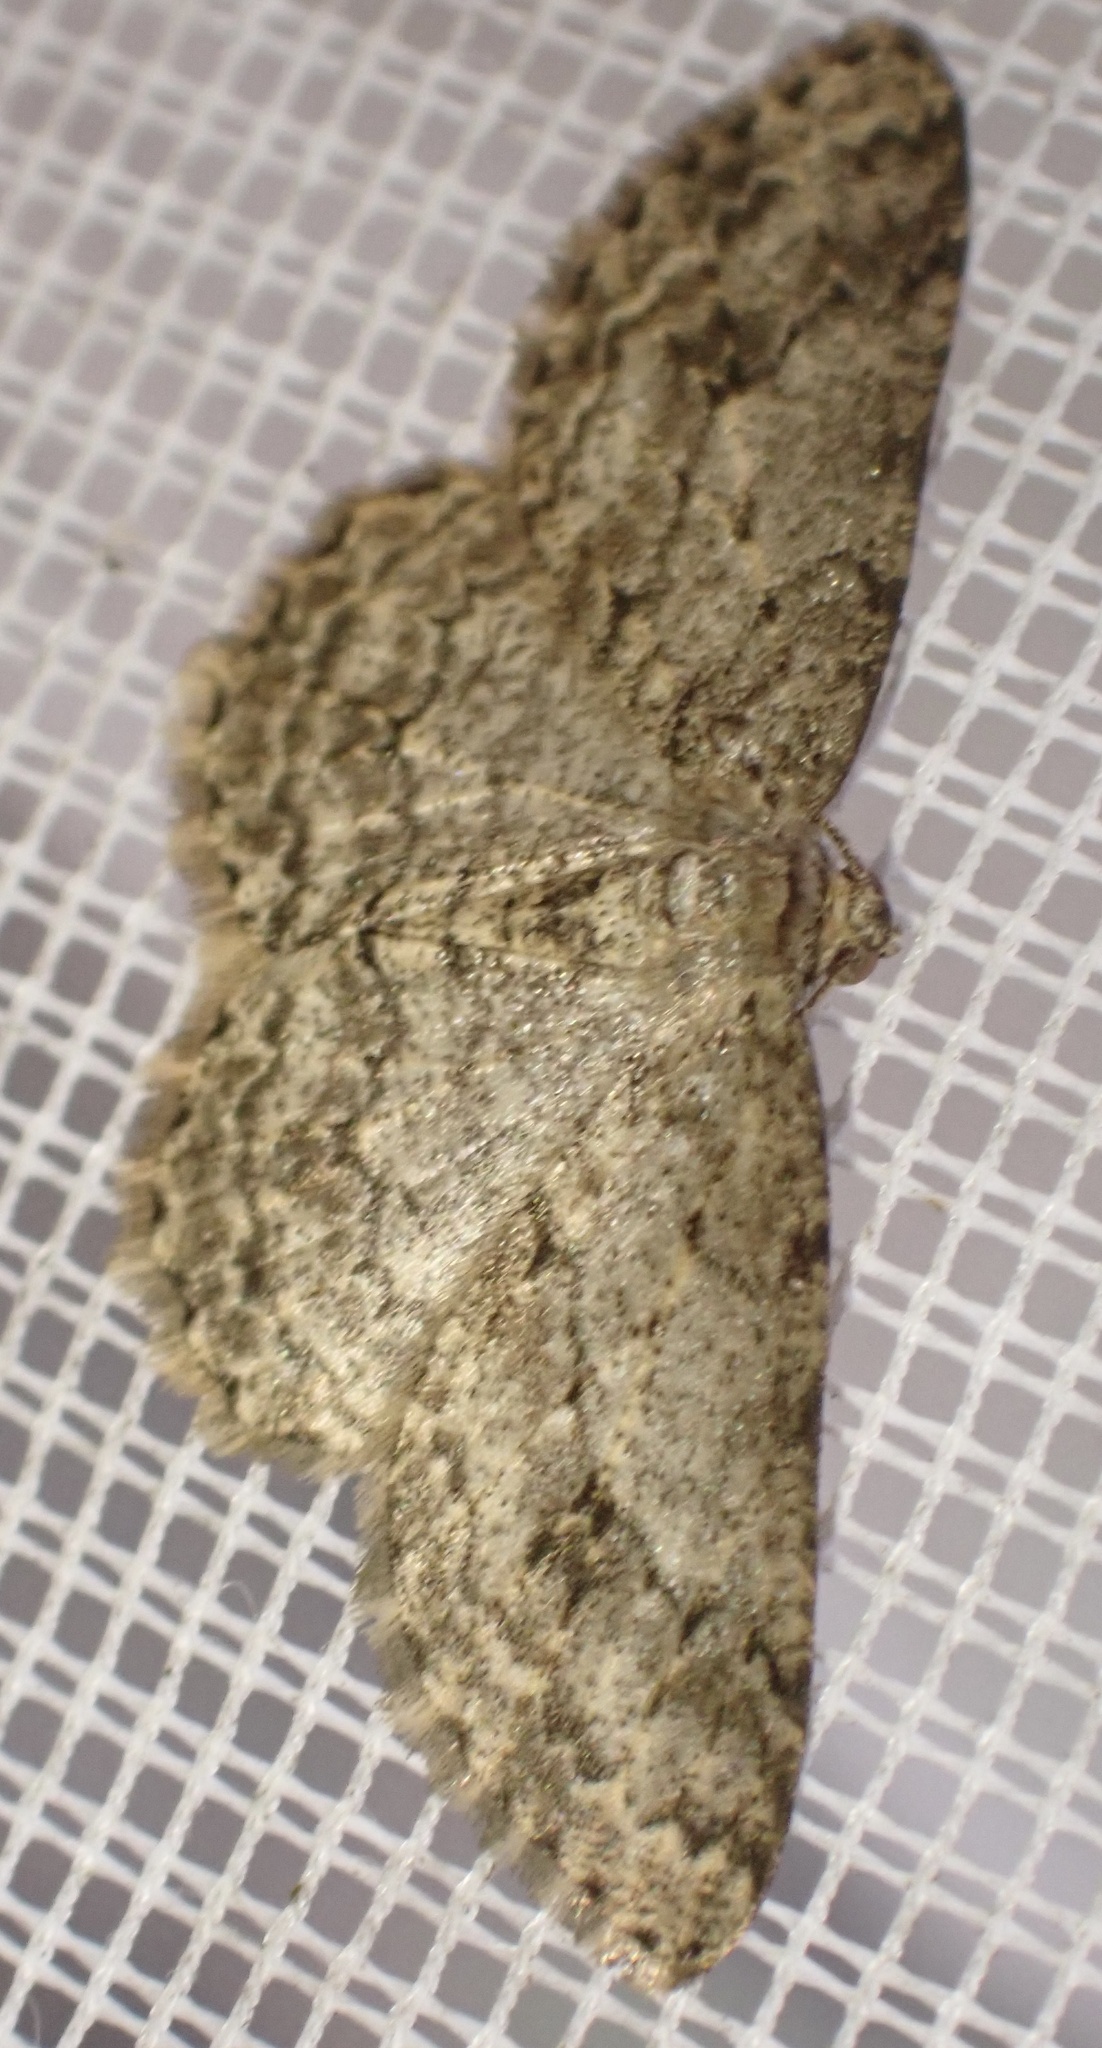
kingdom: Animalia
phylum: Arthropoda
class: Insecta
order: Lepidoptera
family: Geometridae
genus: Ectropis
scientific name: Ectropis crepuscularia
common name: Engrailed
